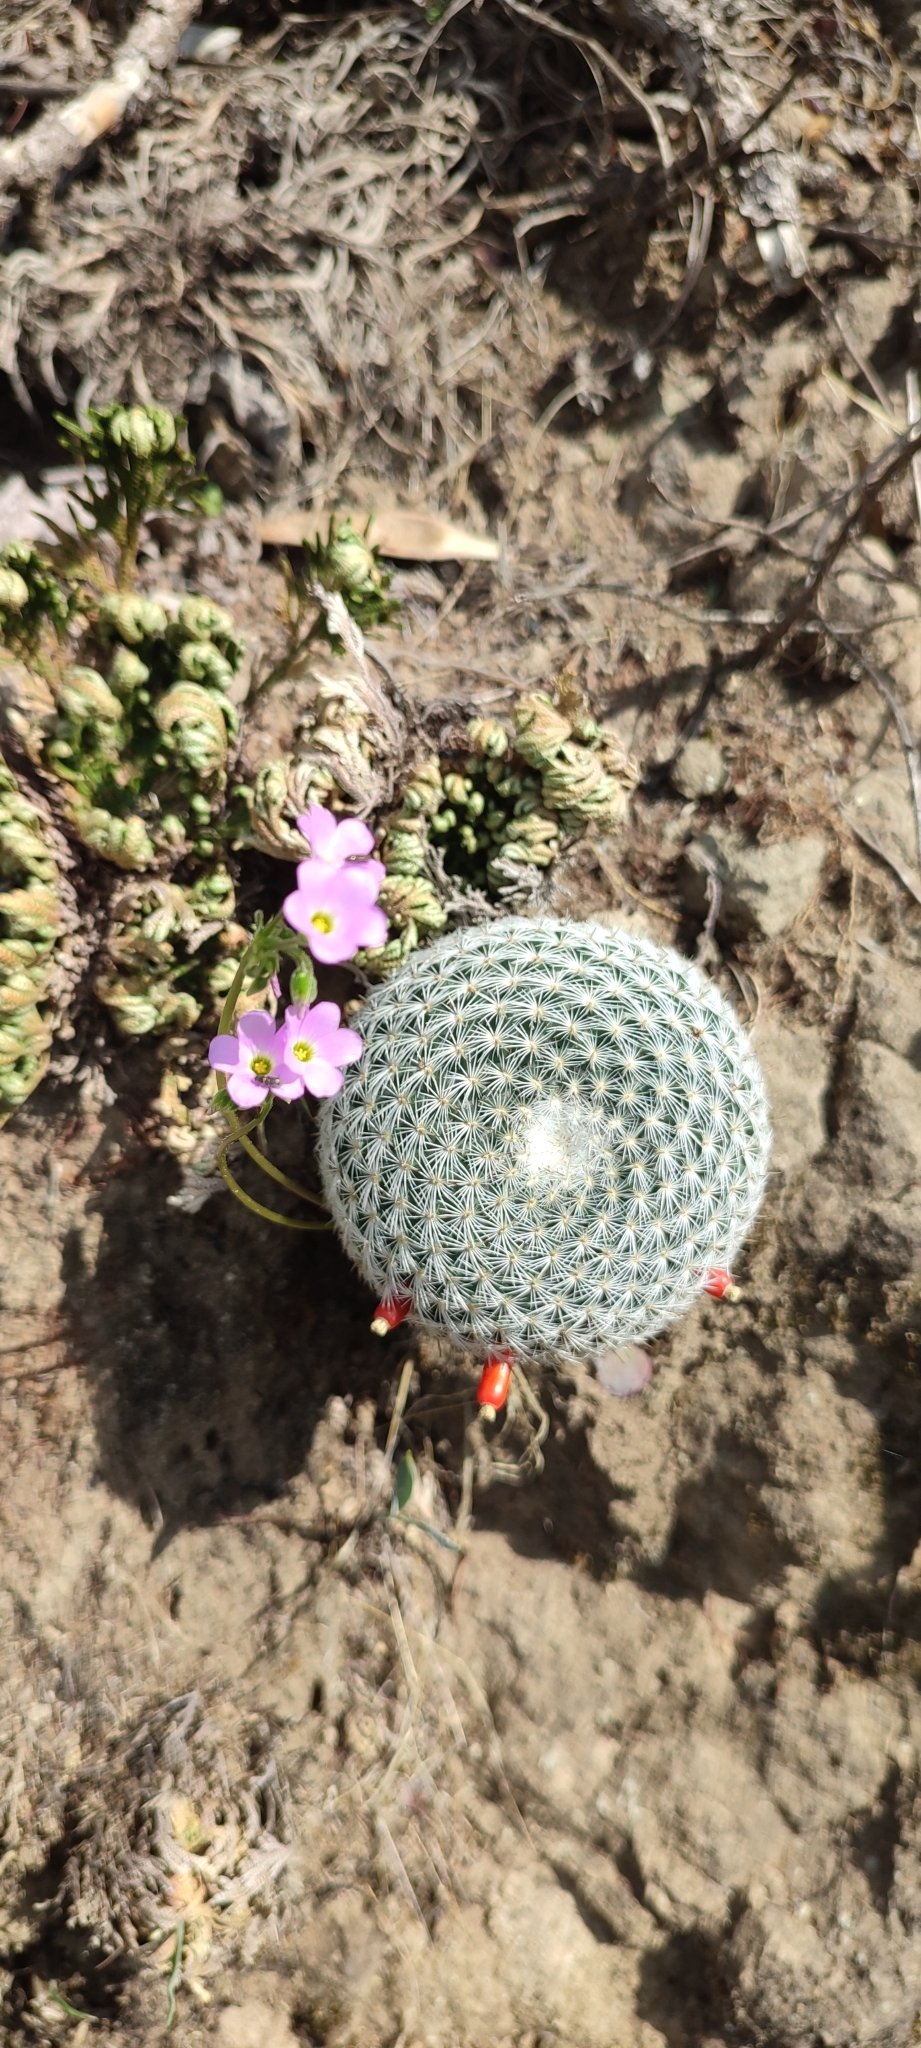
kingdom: Plantae
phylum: Tracheophyta
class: Magnoliopsida
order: Caryophyllales
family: Cactaceae
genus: Mammillaria
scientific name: Mammillaria haageana
